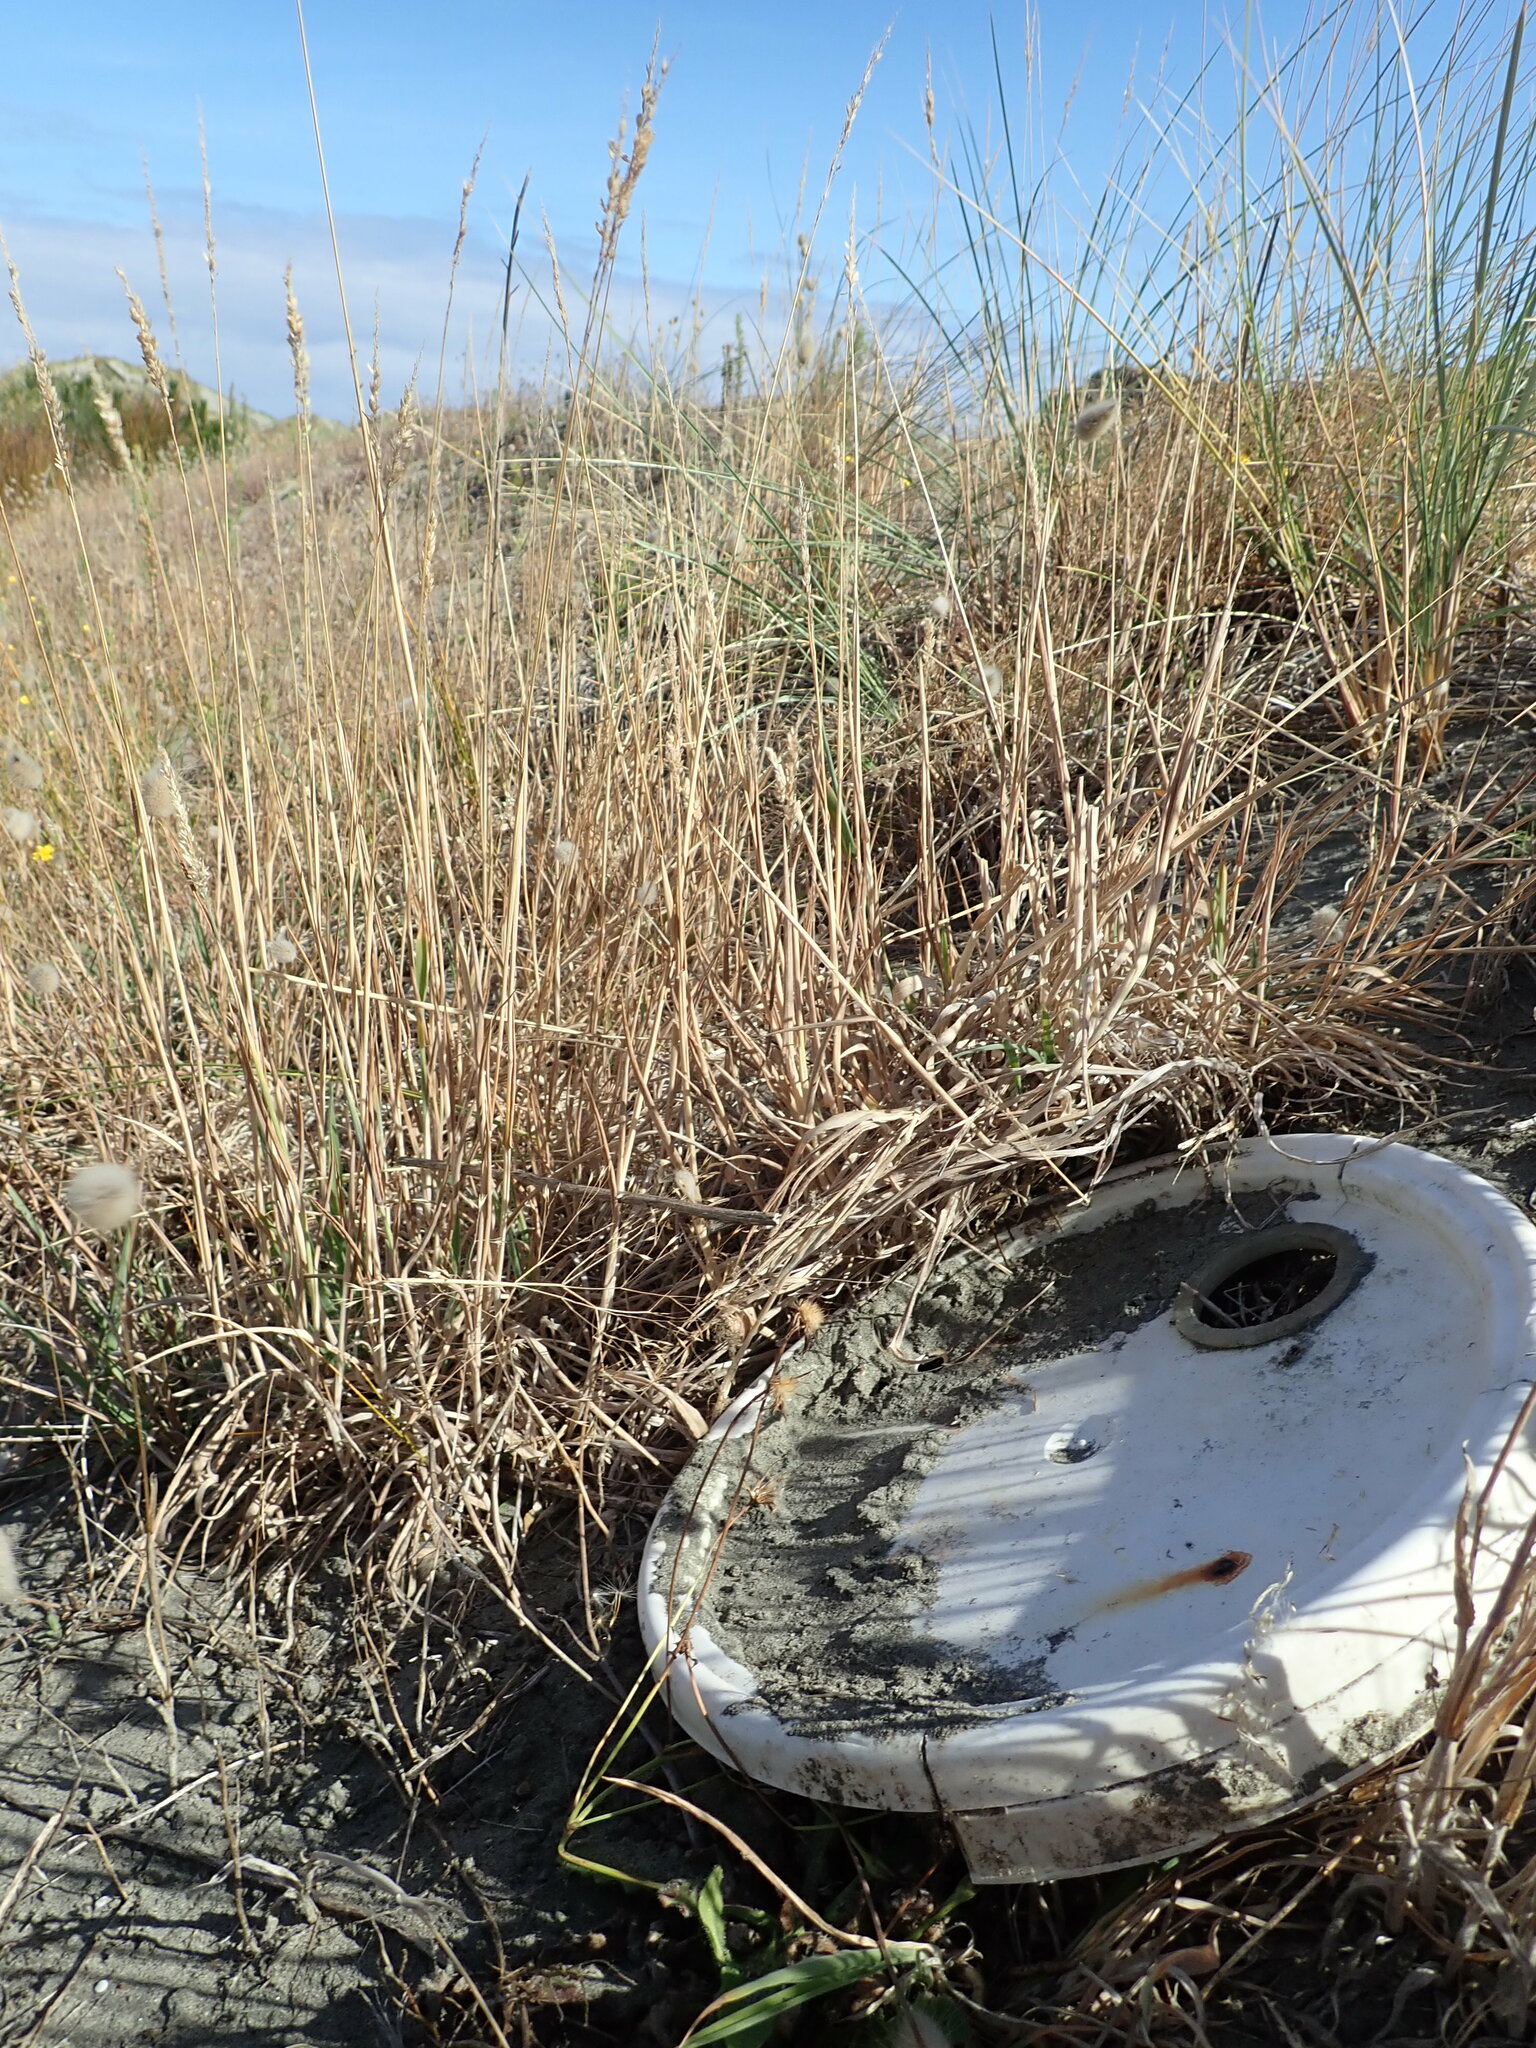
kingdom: Animalia
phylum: Arthropoda
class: Arachnida
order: Araneae
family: Theridiidae
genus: Latrodectus
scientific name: Latrodectus katipo
